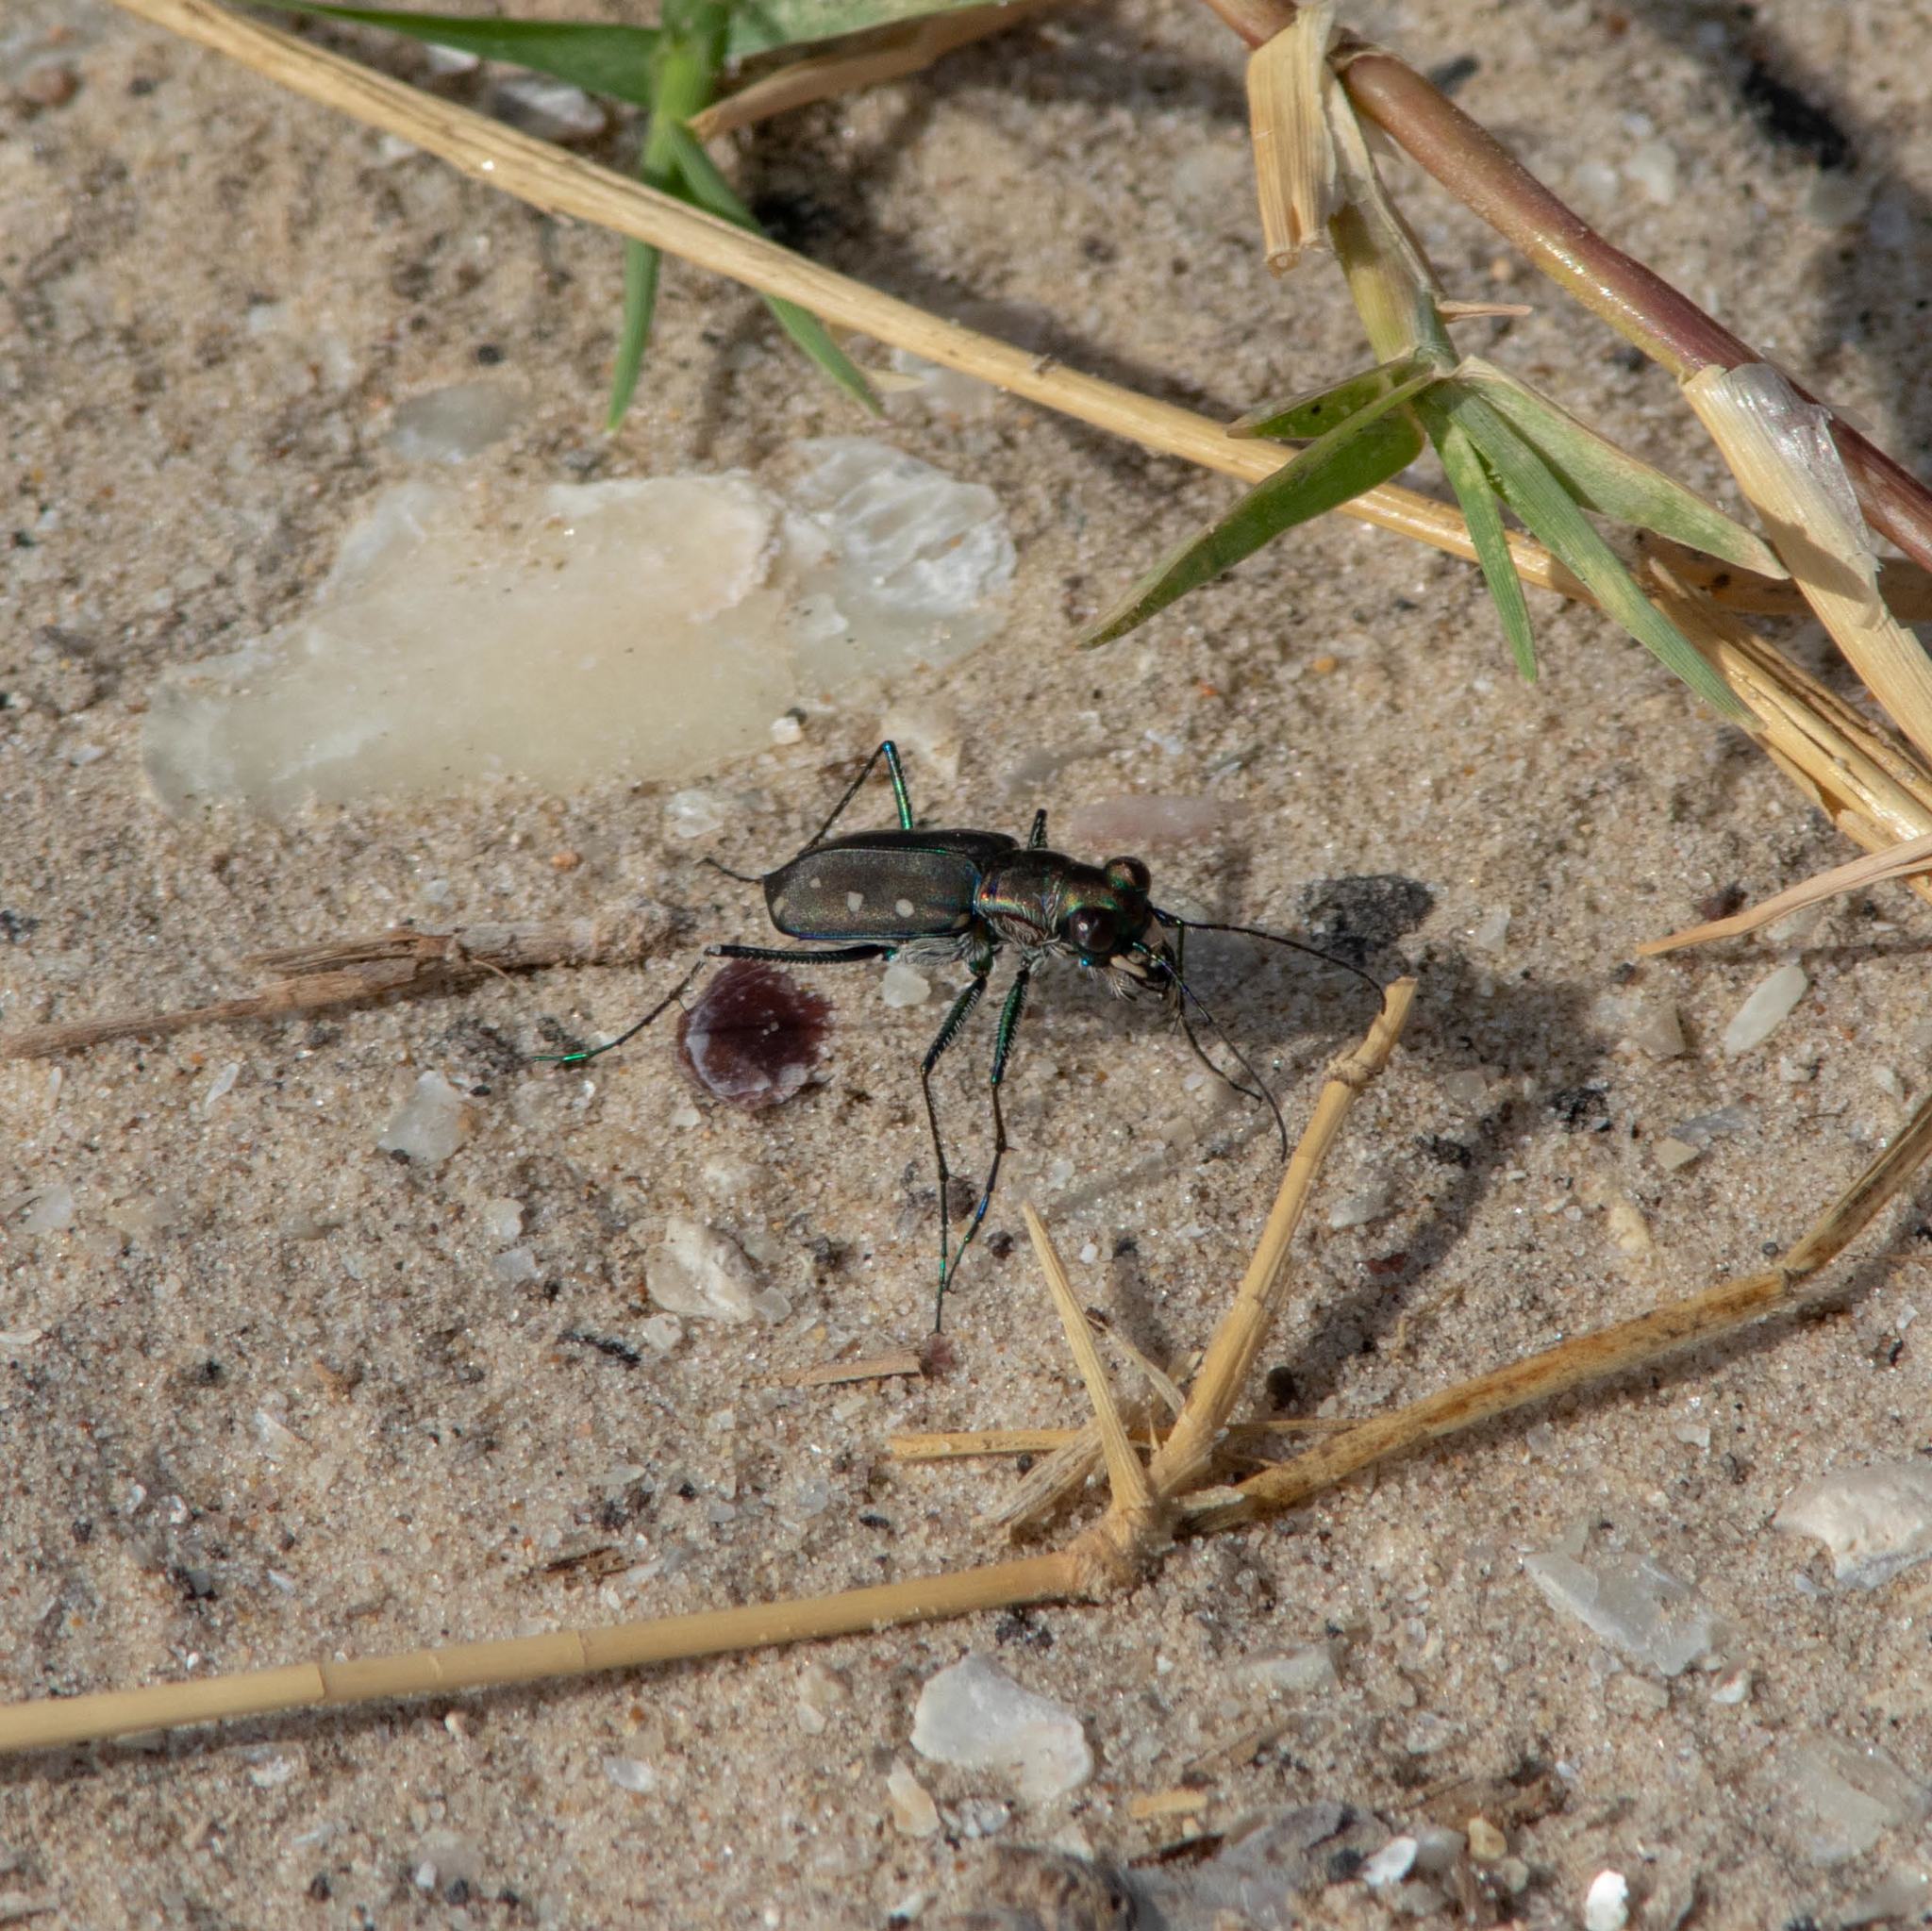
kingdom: Animalia
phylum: Arthropoda
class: Insecta
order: Coleoptera
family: Carabidae
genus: Cicindela
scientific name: Cicindela ocellata
